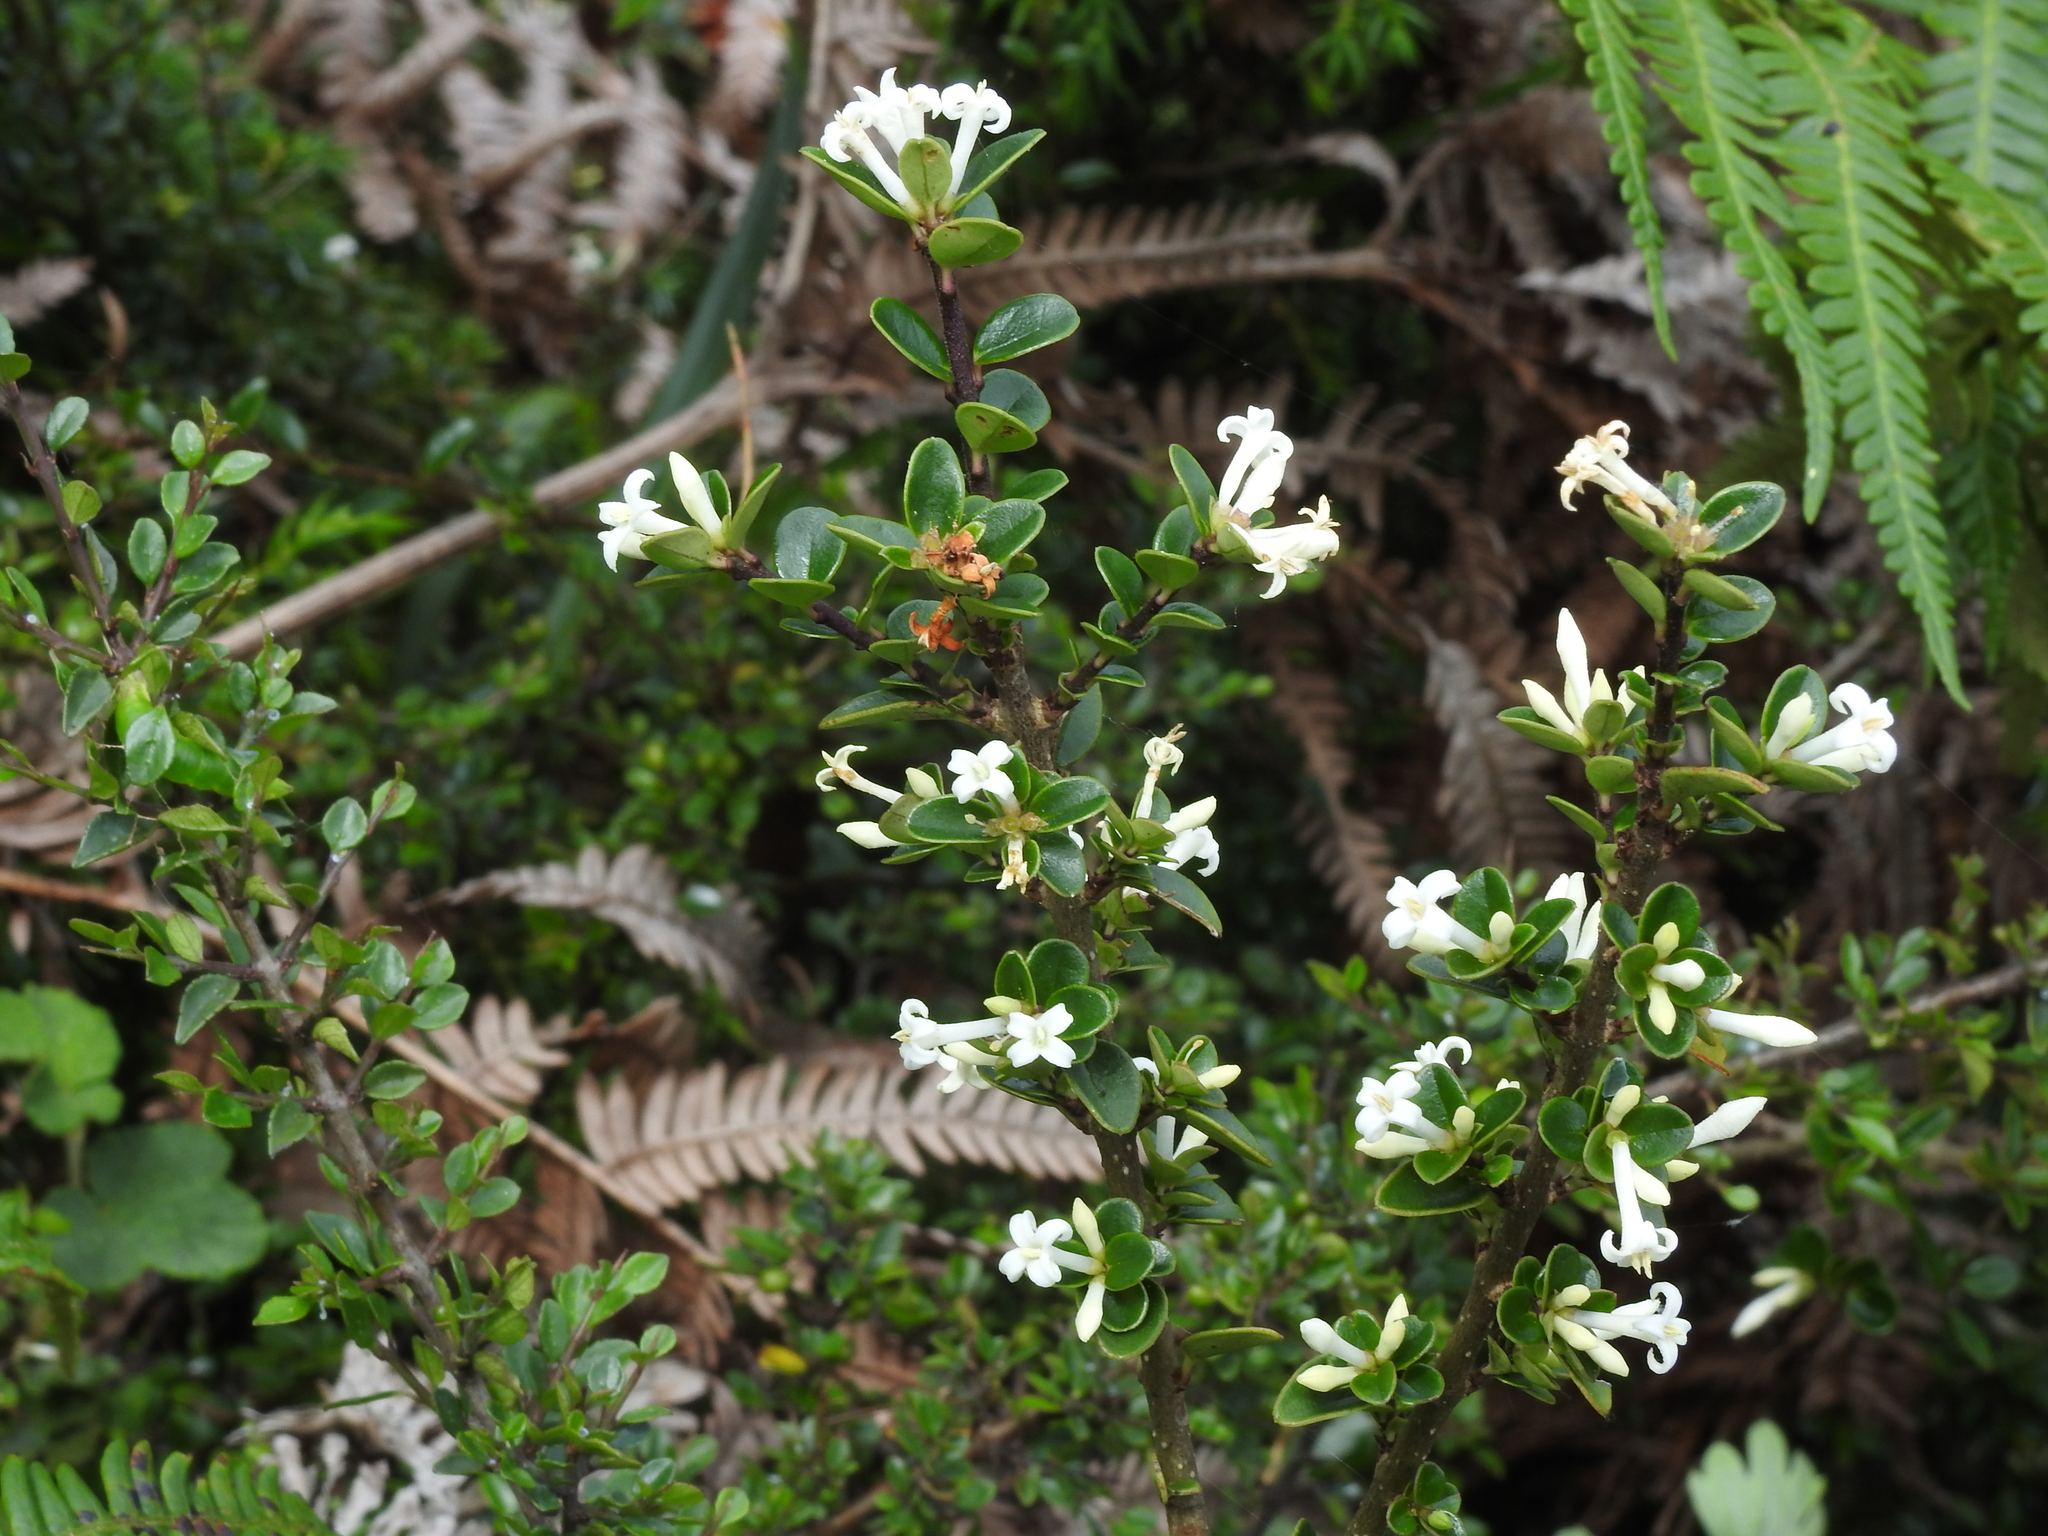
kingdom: Plantae
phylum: Tracheophyta
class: Magnoliopsida
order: Lamiales
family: Oleaceae
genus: Ligustrum
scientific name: Ligustrum morrisonense
